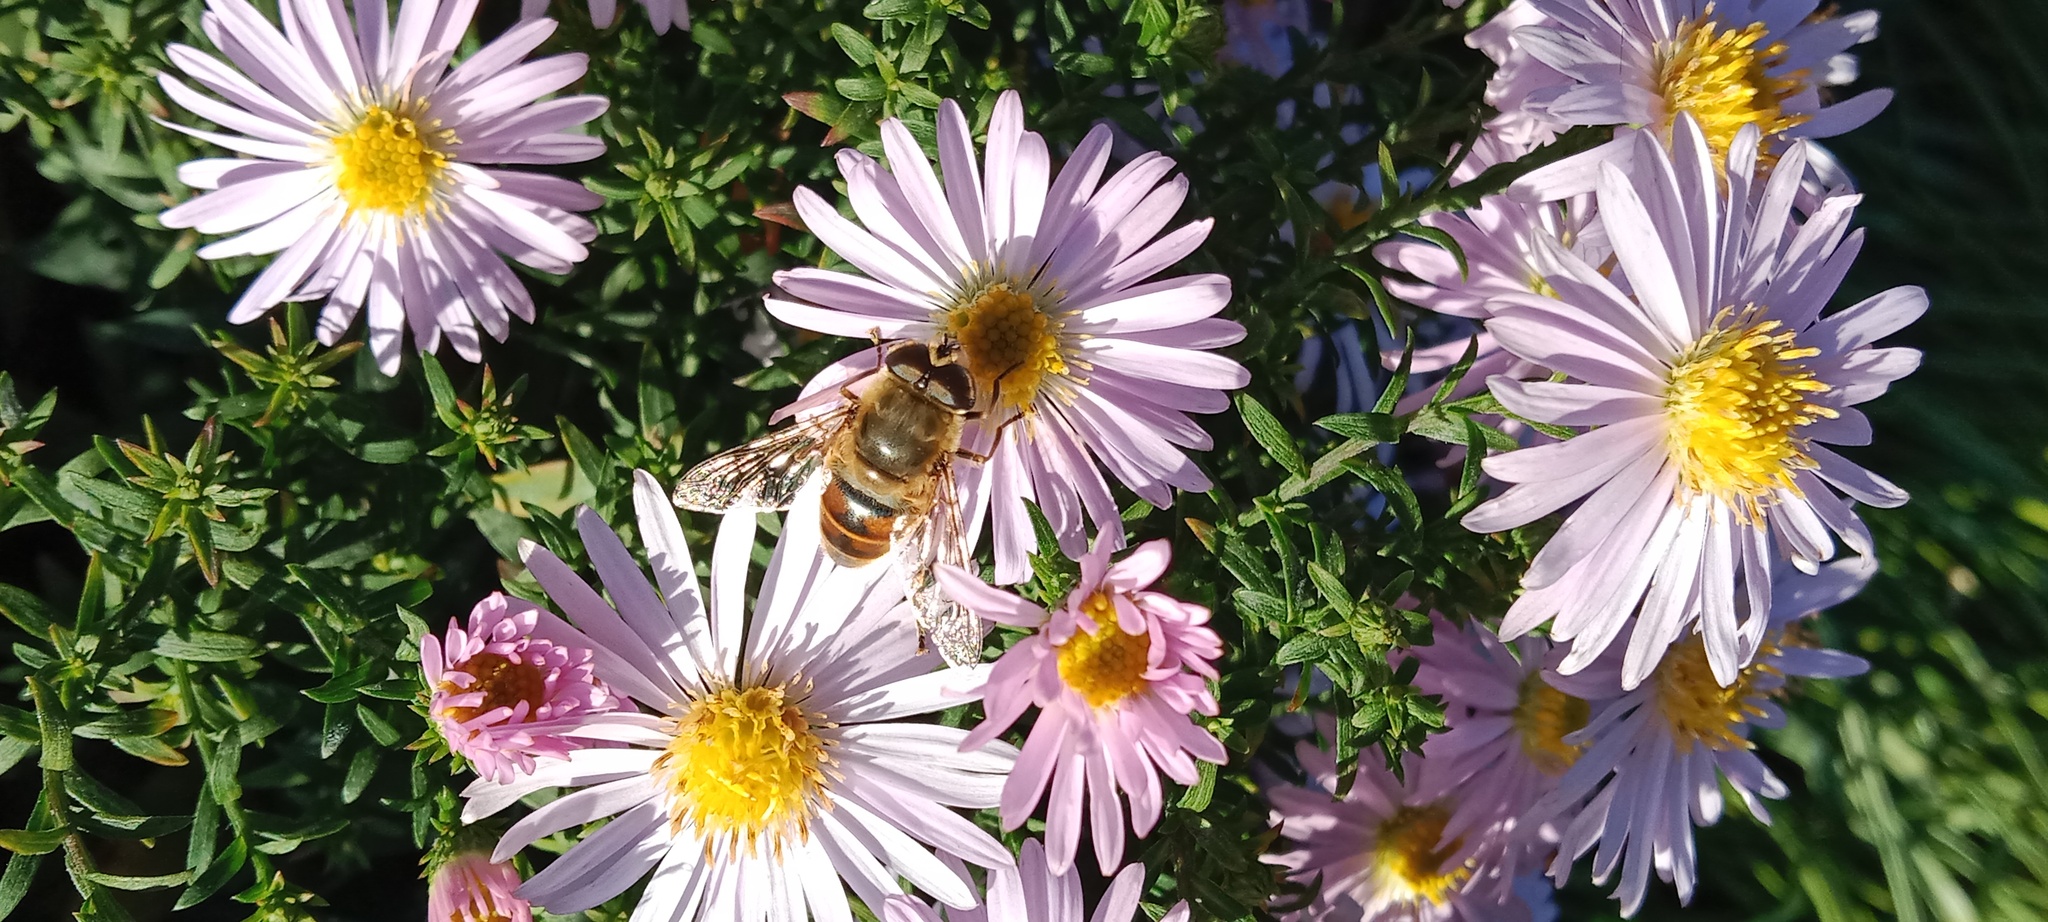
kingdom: Animalia
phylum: Arthropoda
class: Insecta
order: Diptera
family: Syrphidae
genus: Eristalis
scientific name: Eristalis tenax
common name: Drone fly
